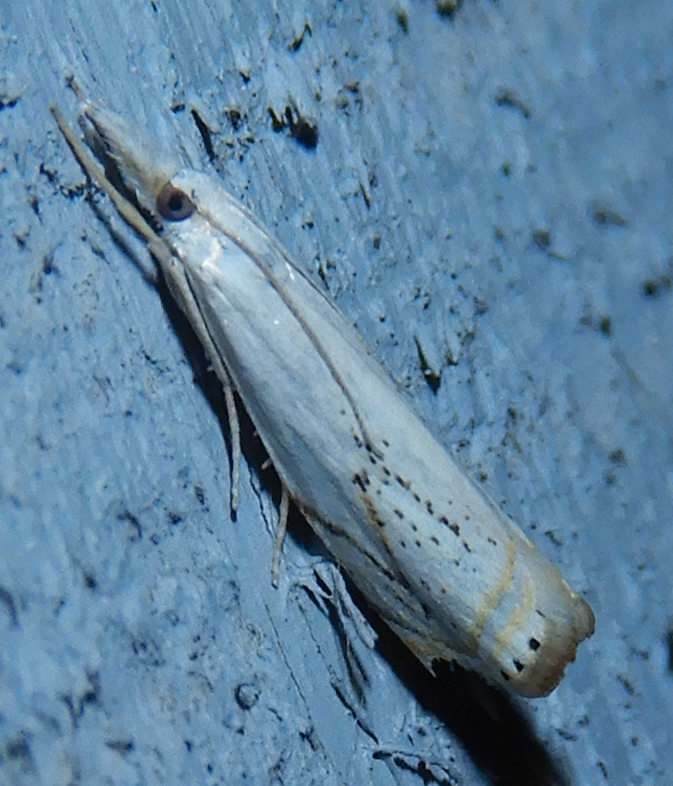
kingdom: Animalia
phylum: Arthropoda
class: Insecta
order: Lepidoptera
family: Crambidae
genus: Crambus
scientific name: Crambus albellus
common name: Small white grass-veneer
